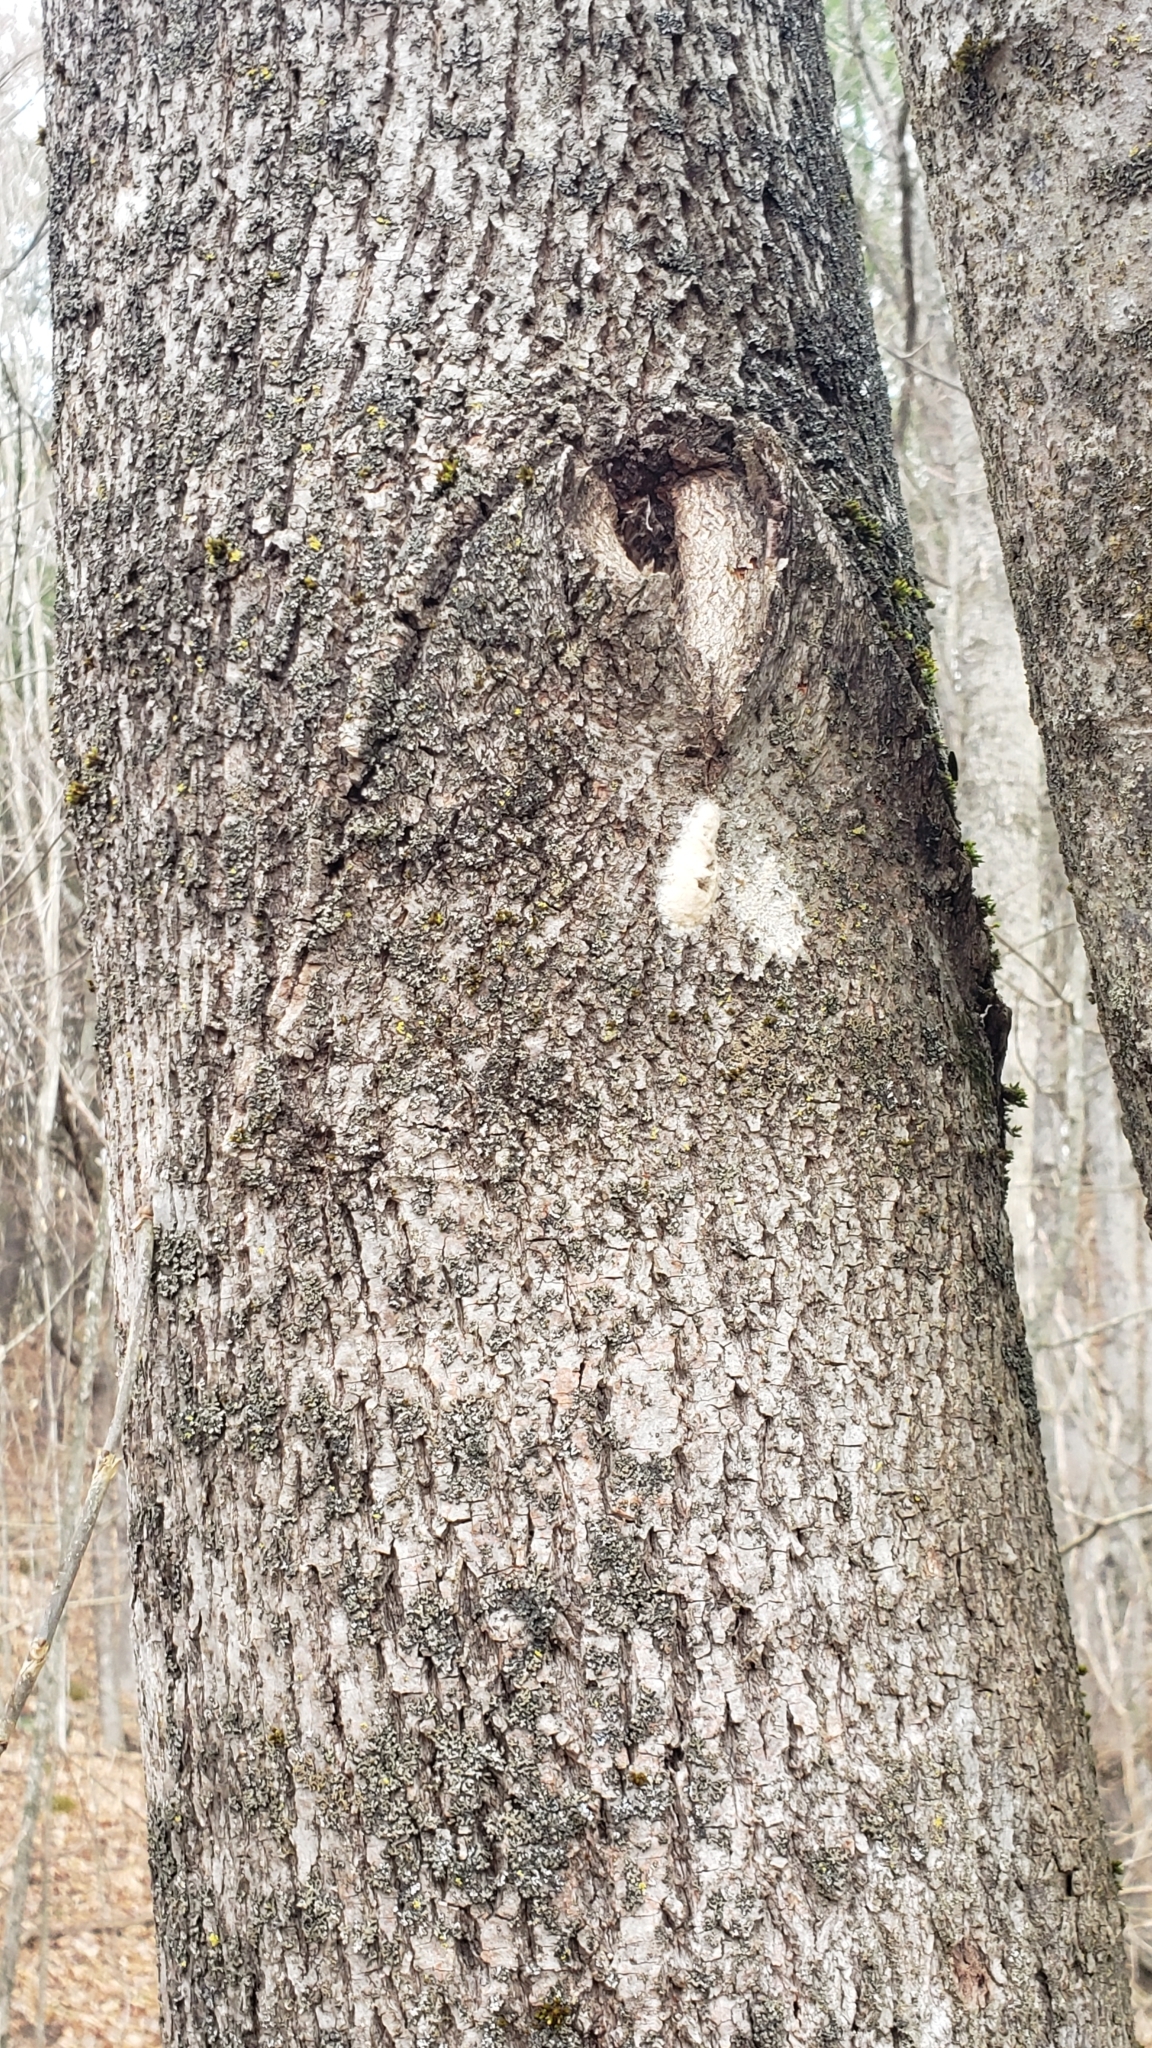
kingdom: Animalia
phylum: Arthropoda
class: Insecta
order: Lepidoptera
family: Erebidae
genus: Lymantria
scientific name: Lymantria dispar
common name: Gypsy moth
